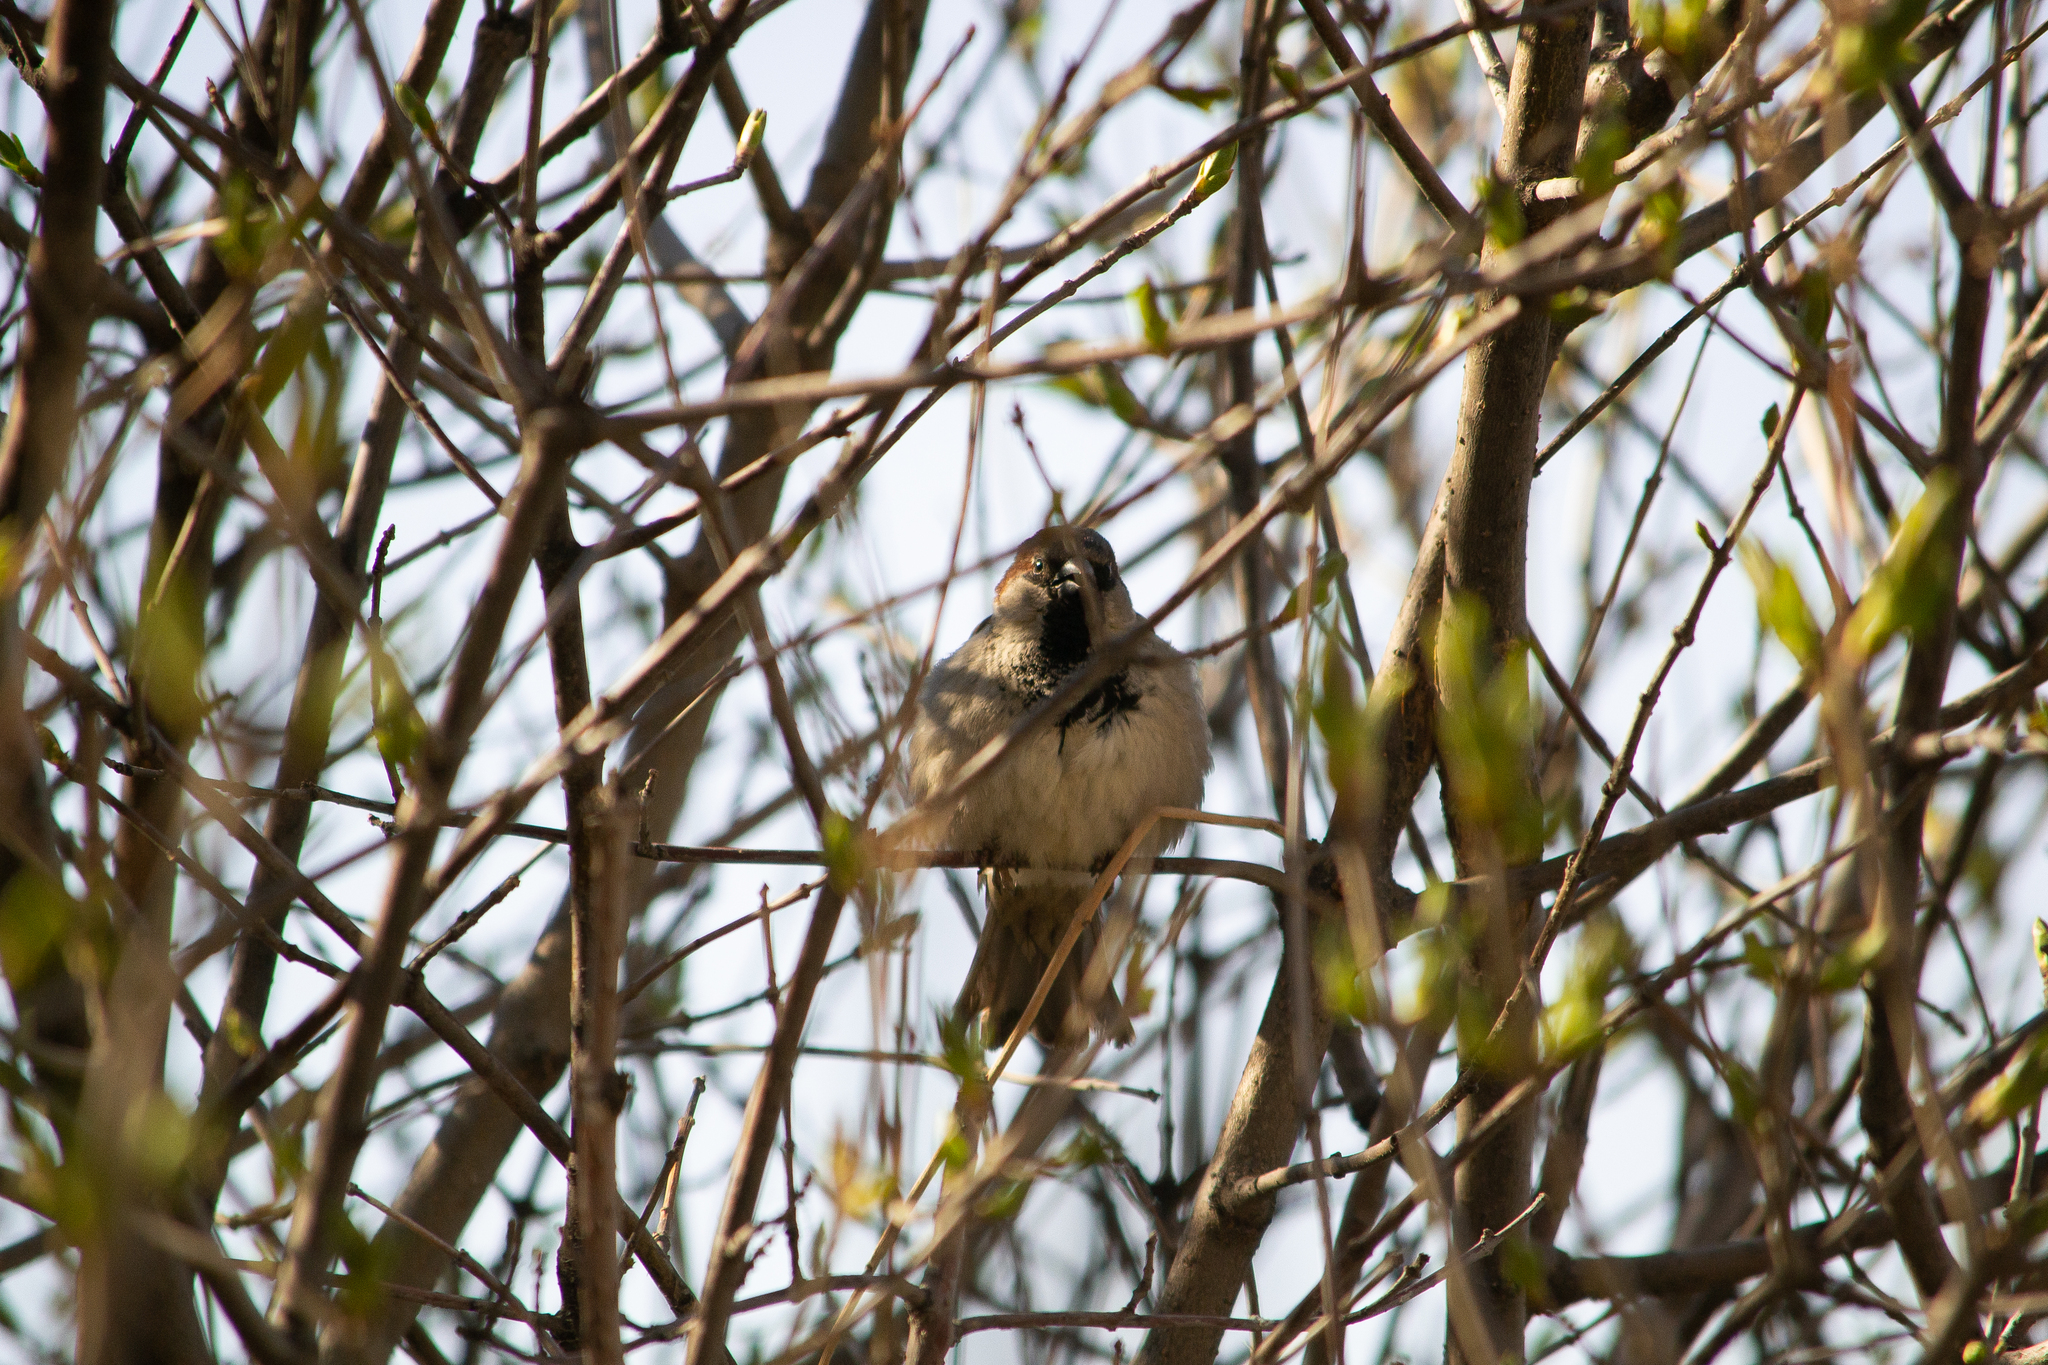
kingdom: Animalia
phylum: Chordata
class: Aves
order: Passeriformes
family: Passeridae
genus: Passer
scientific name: Passer domesticus
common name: House sparrow
